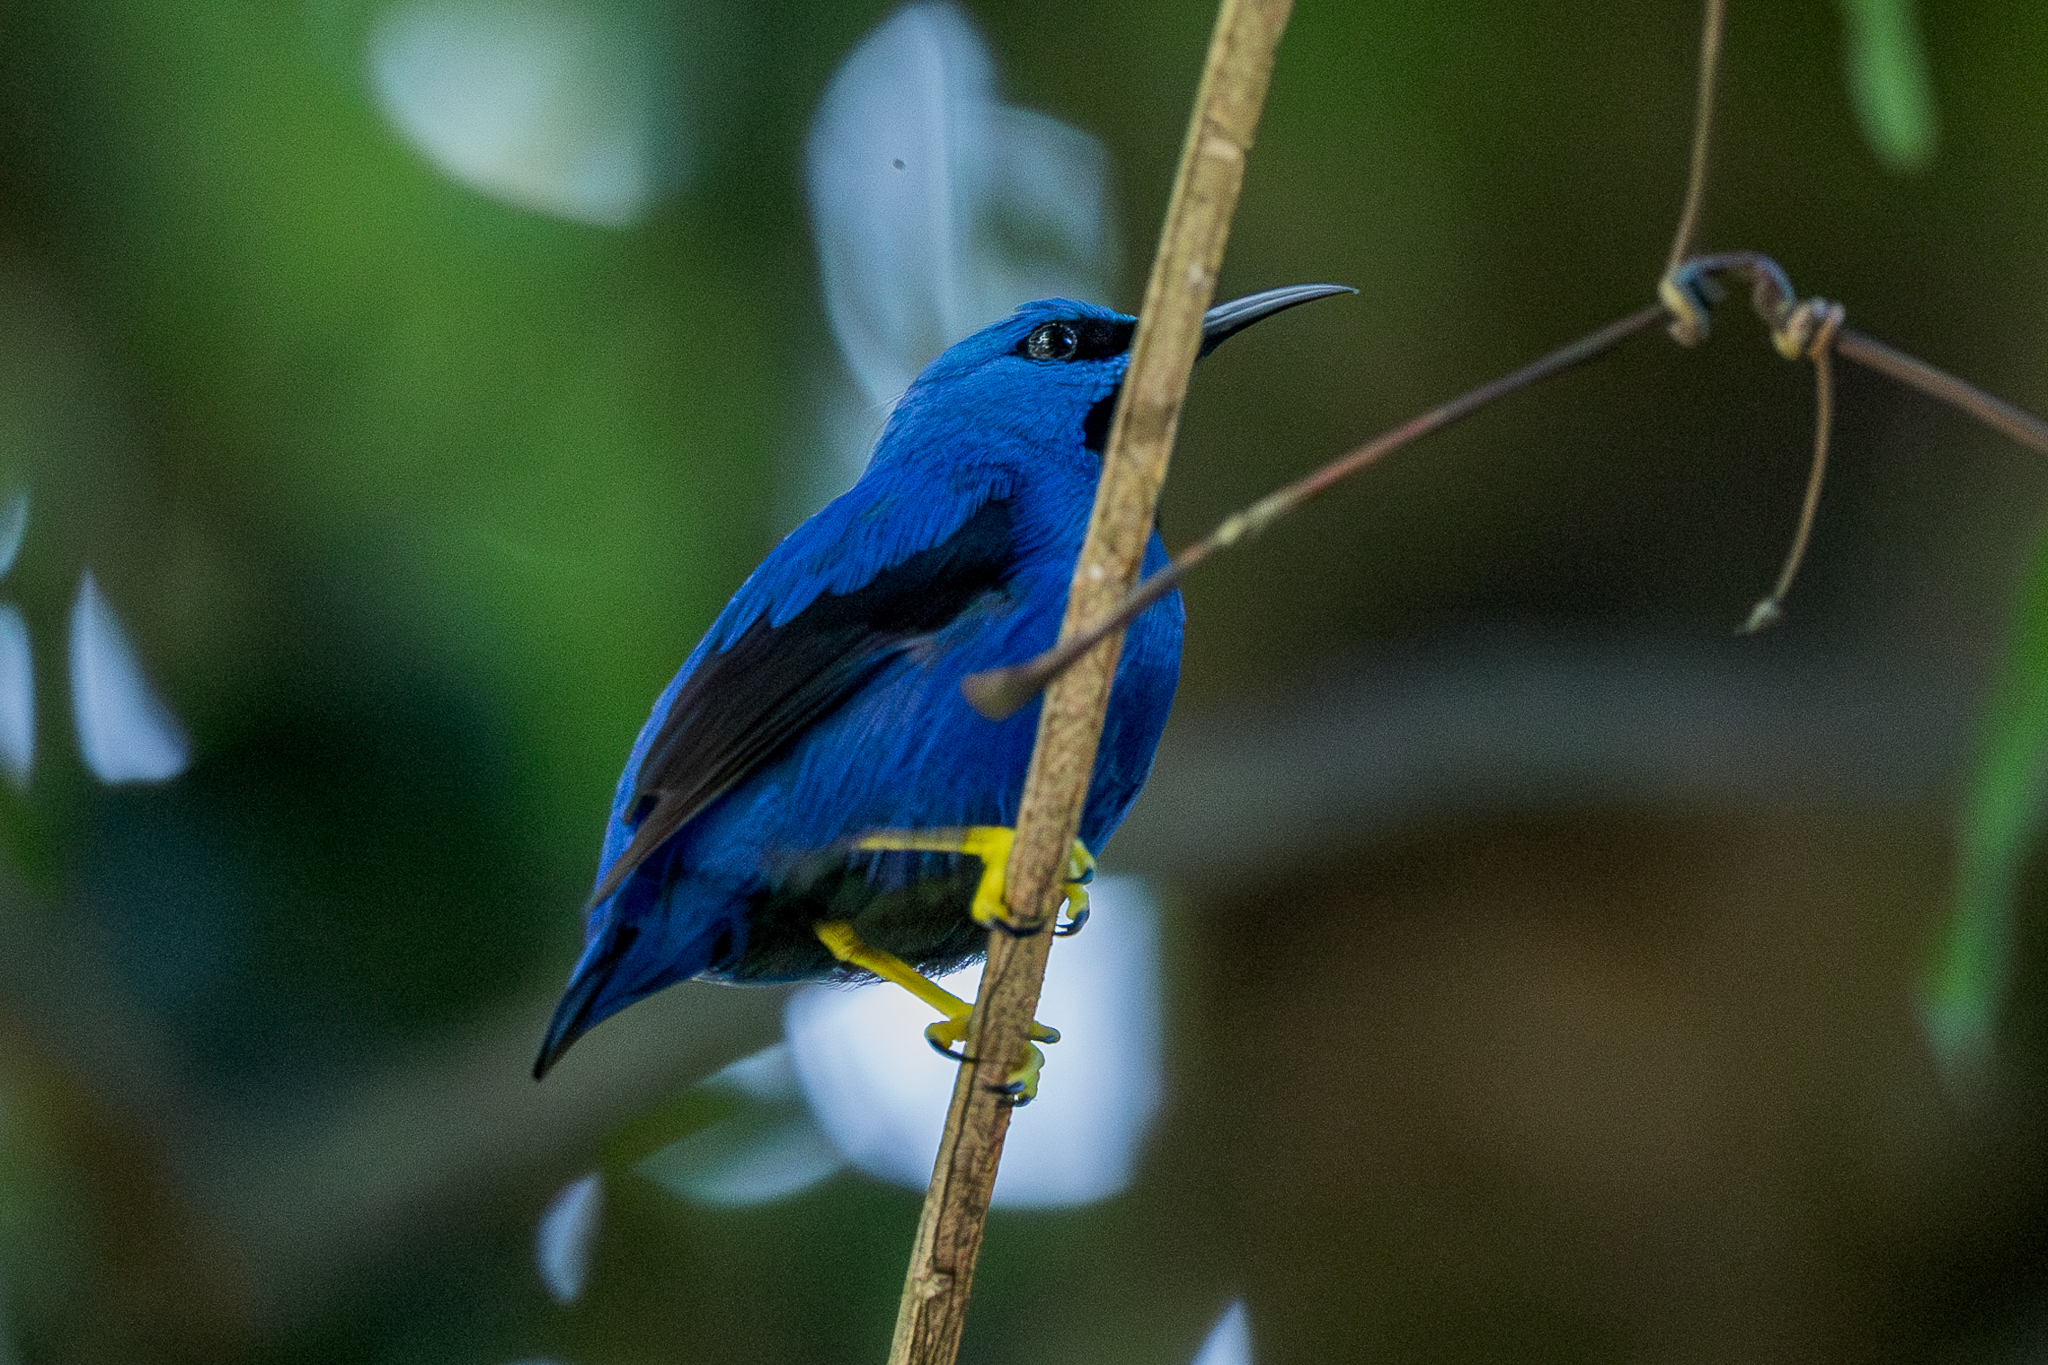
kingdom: Animalia
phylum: Chordata
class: Aves
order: Passeriformes
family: Thraupidae
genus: Cyanerpes
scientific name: Cyanerpes lucidus
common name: Shining honeycreeper
